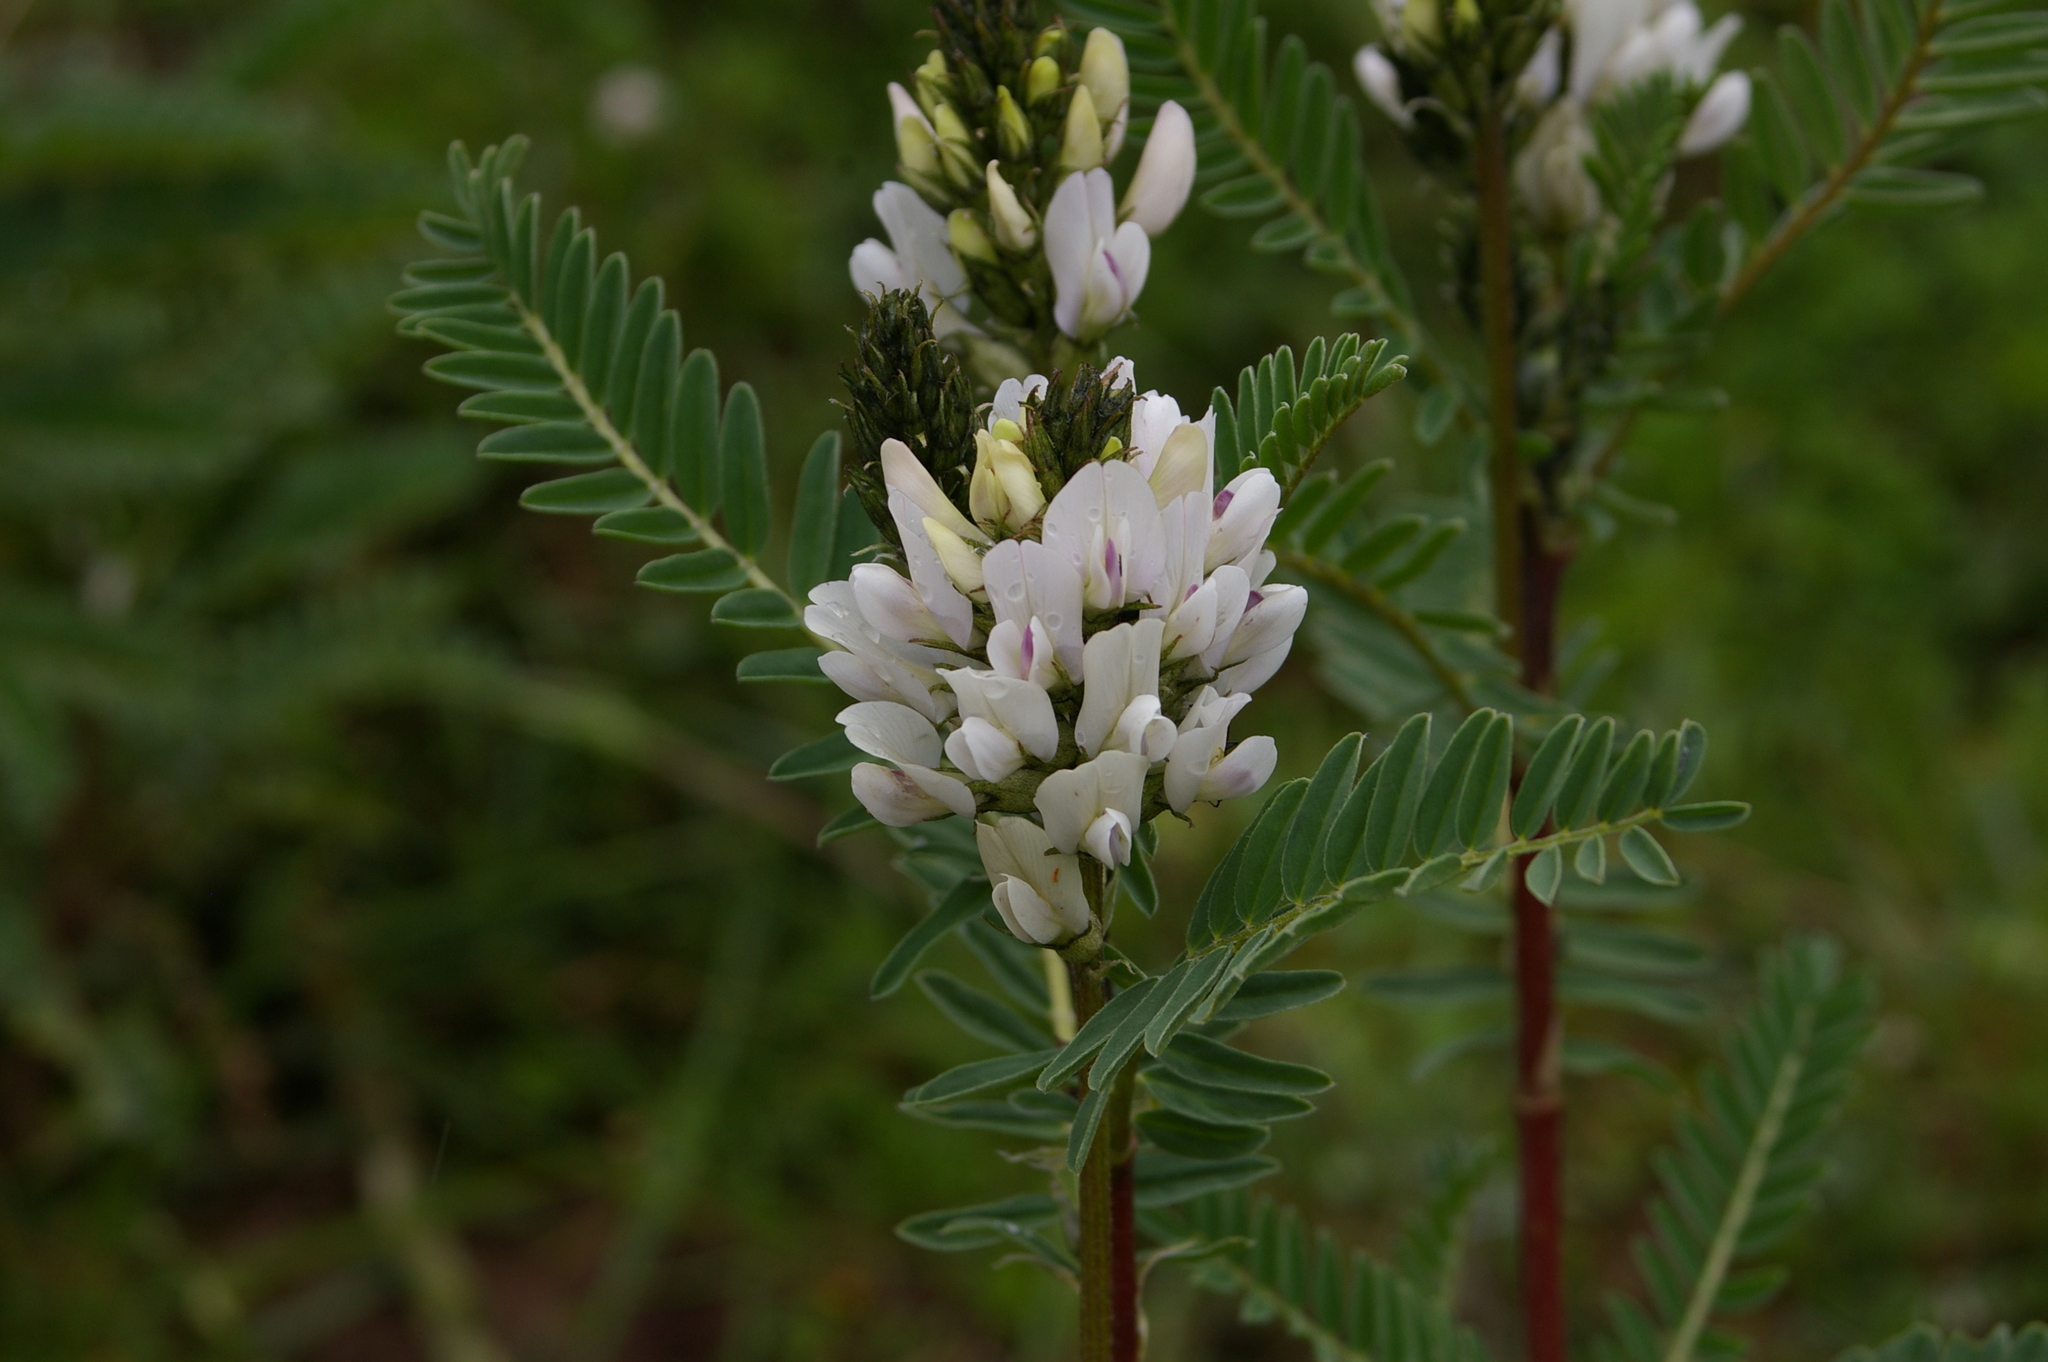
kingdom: Plantae
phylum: Tracheophyta
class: Magnoliopsida
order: Fabales
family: Fabaceae
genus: Astragalus
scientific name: Astragalus garbancillo
